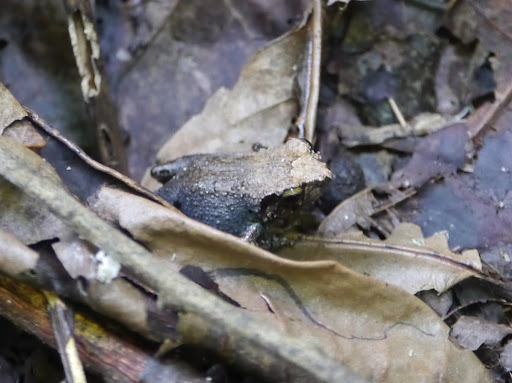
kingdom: Animalia
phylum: Chordata
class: Amphibia
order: Anura
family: Arthroleptidae
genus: Arthroleptis
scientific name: Arthroleptis poecilonotus
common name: West african screeching frog
